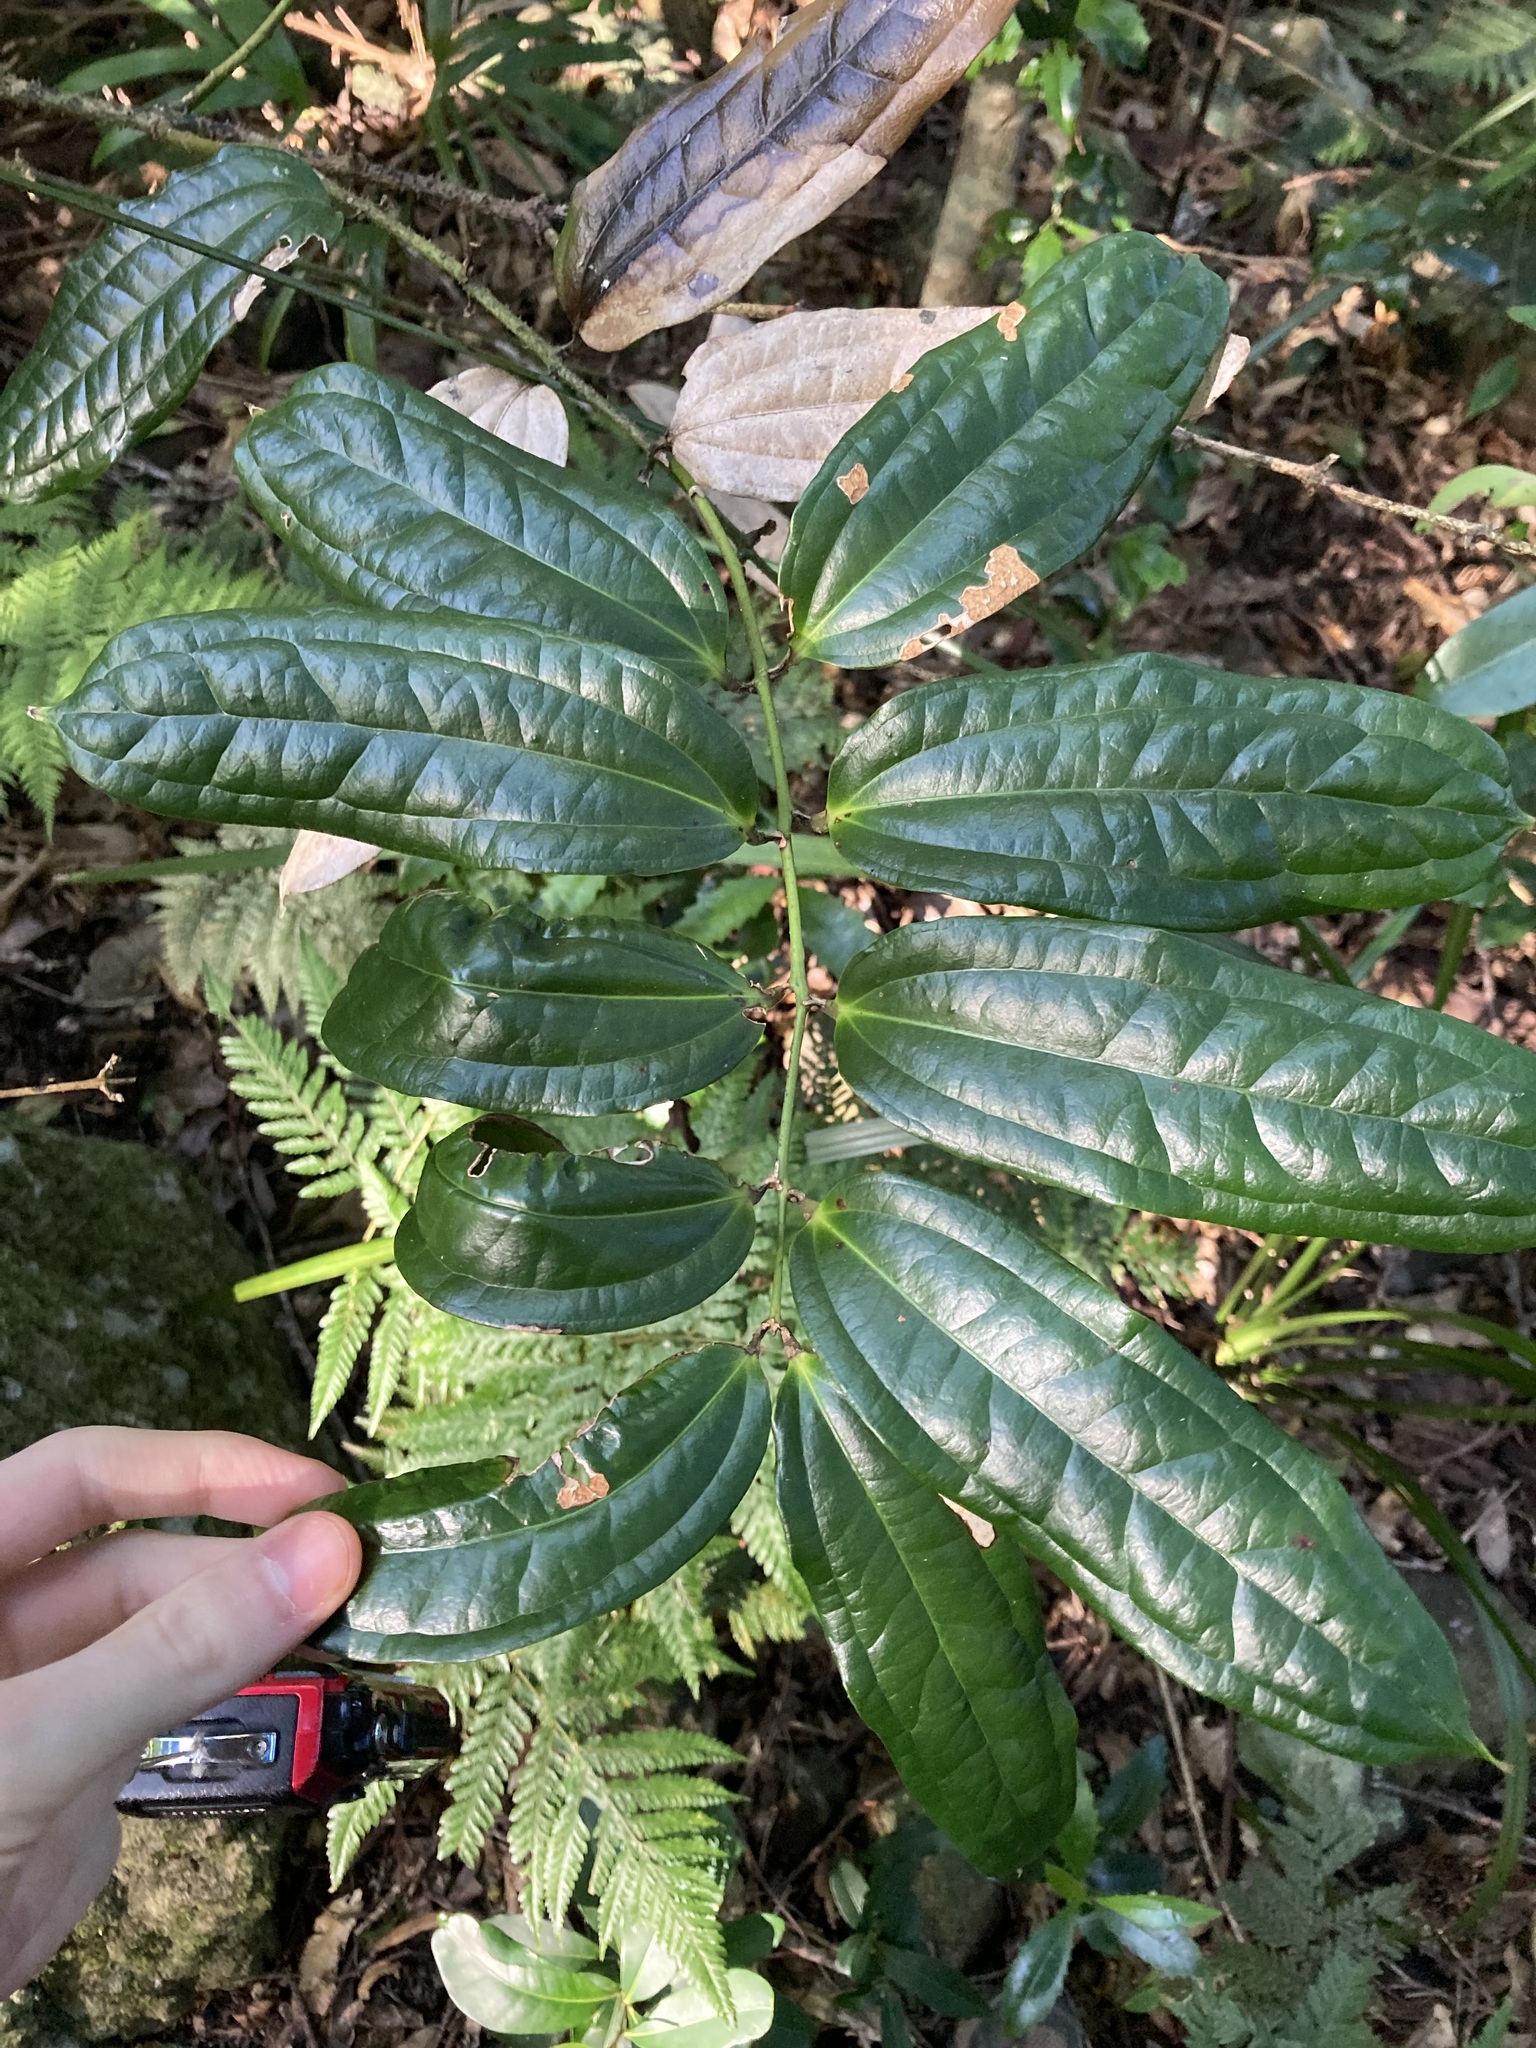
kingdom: Plantae
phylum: Tracheophyta
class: Liliopsida
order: Liliales
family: Ripogonaceae
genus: Ripogonum
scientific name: Ripogonum discolor
